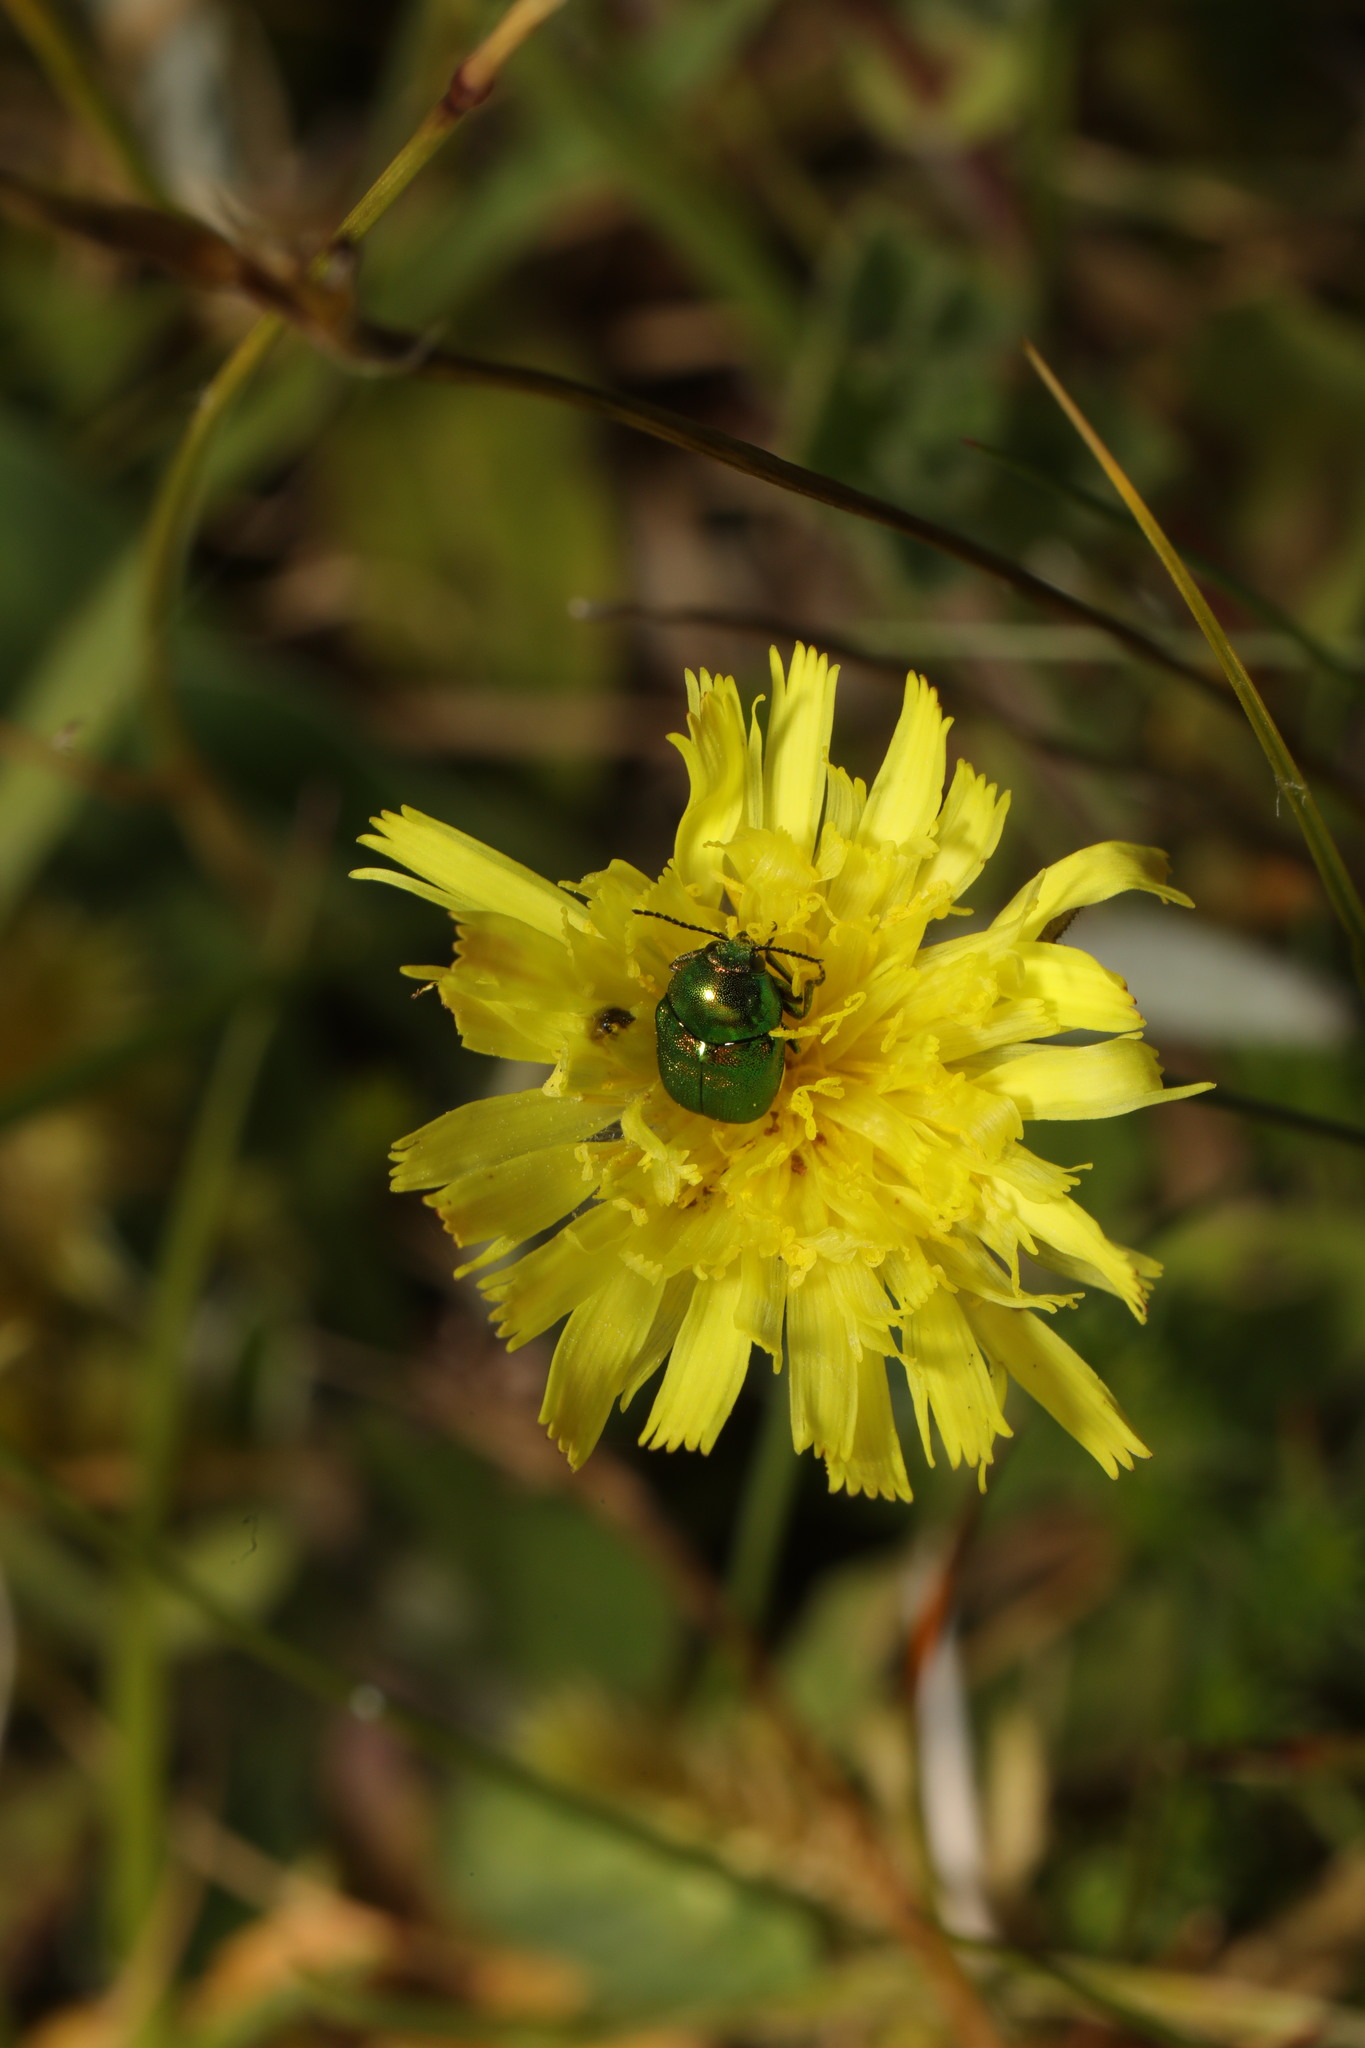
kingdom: Animalia
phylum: Arthropoda
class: Insecta
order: Coleoptera
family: Chrysomelidae
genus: Cryptocephalus
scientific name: Cryptocephalus hypochoeridis
